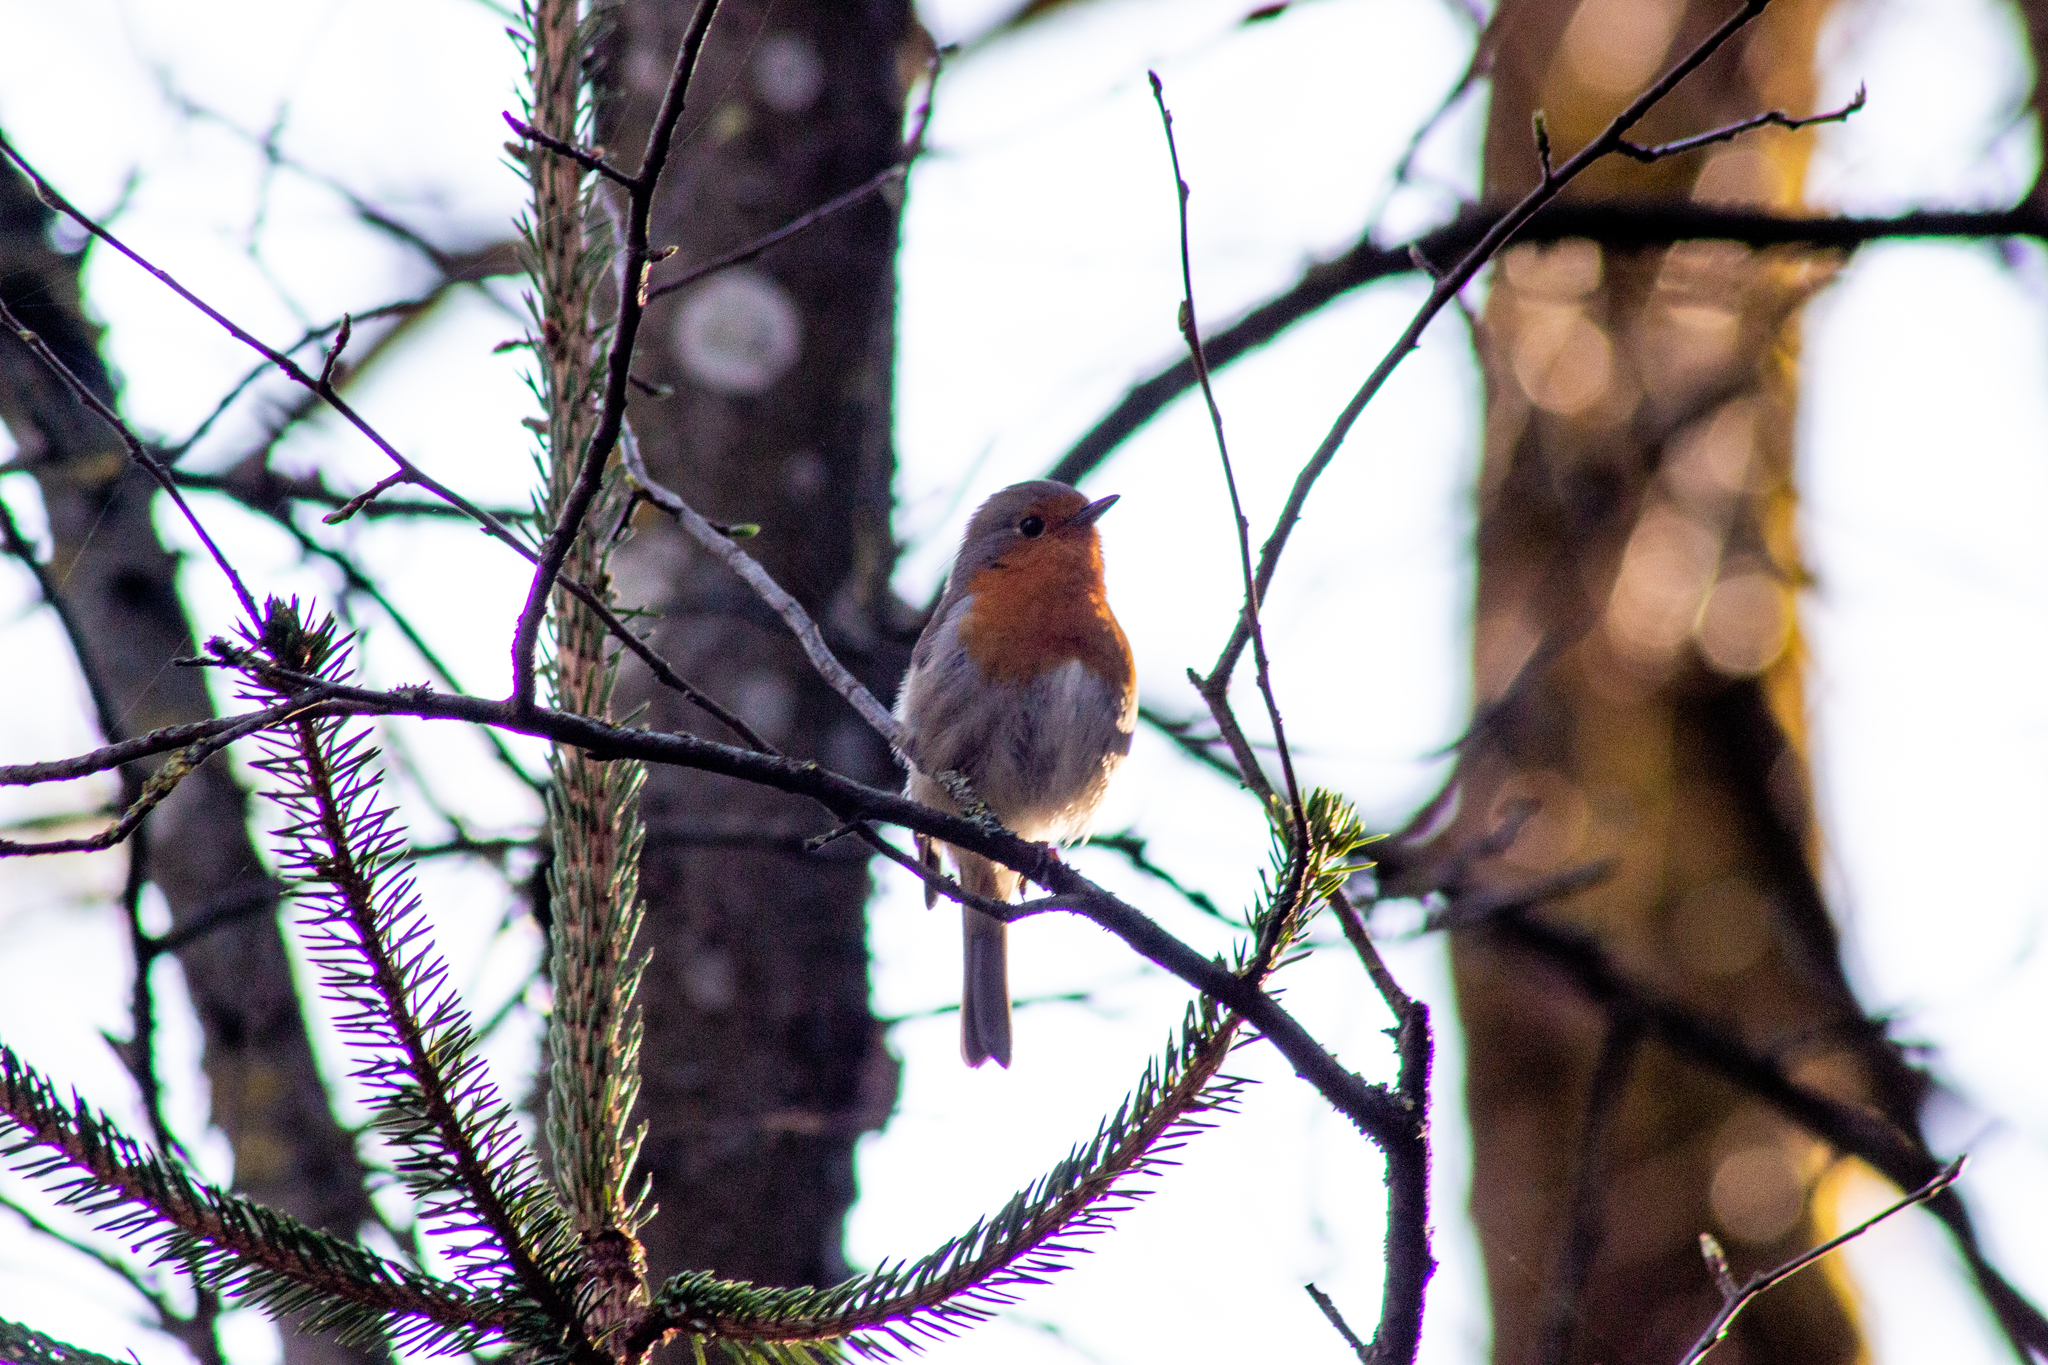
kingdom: Animalia
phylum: Chordata
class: Aves
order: Passeriformes
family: Muscicapidae
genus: Erithacus
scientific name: Erithacus rubecula
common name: European robin
